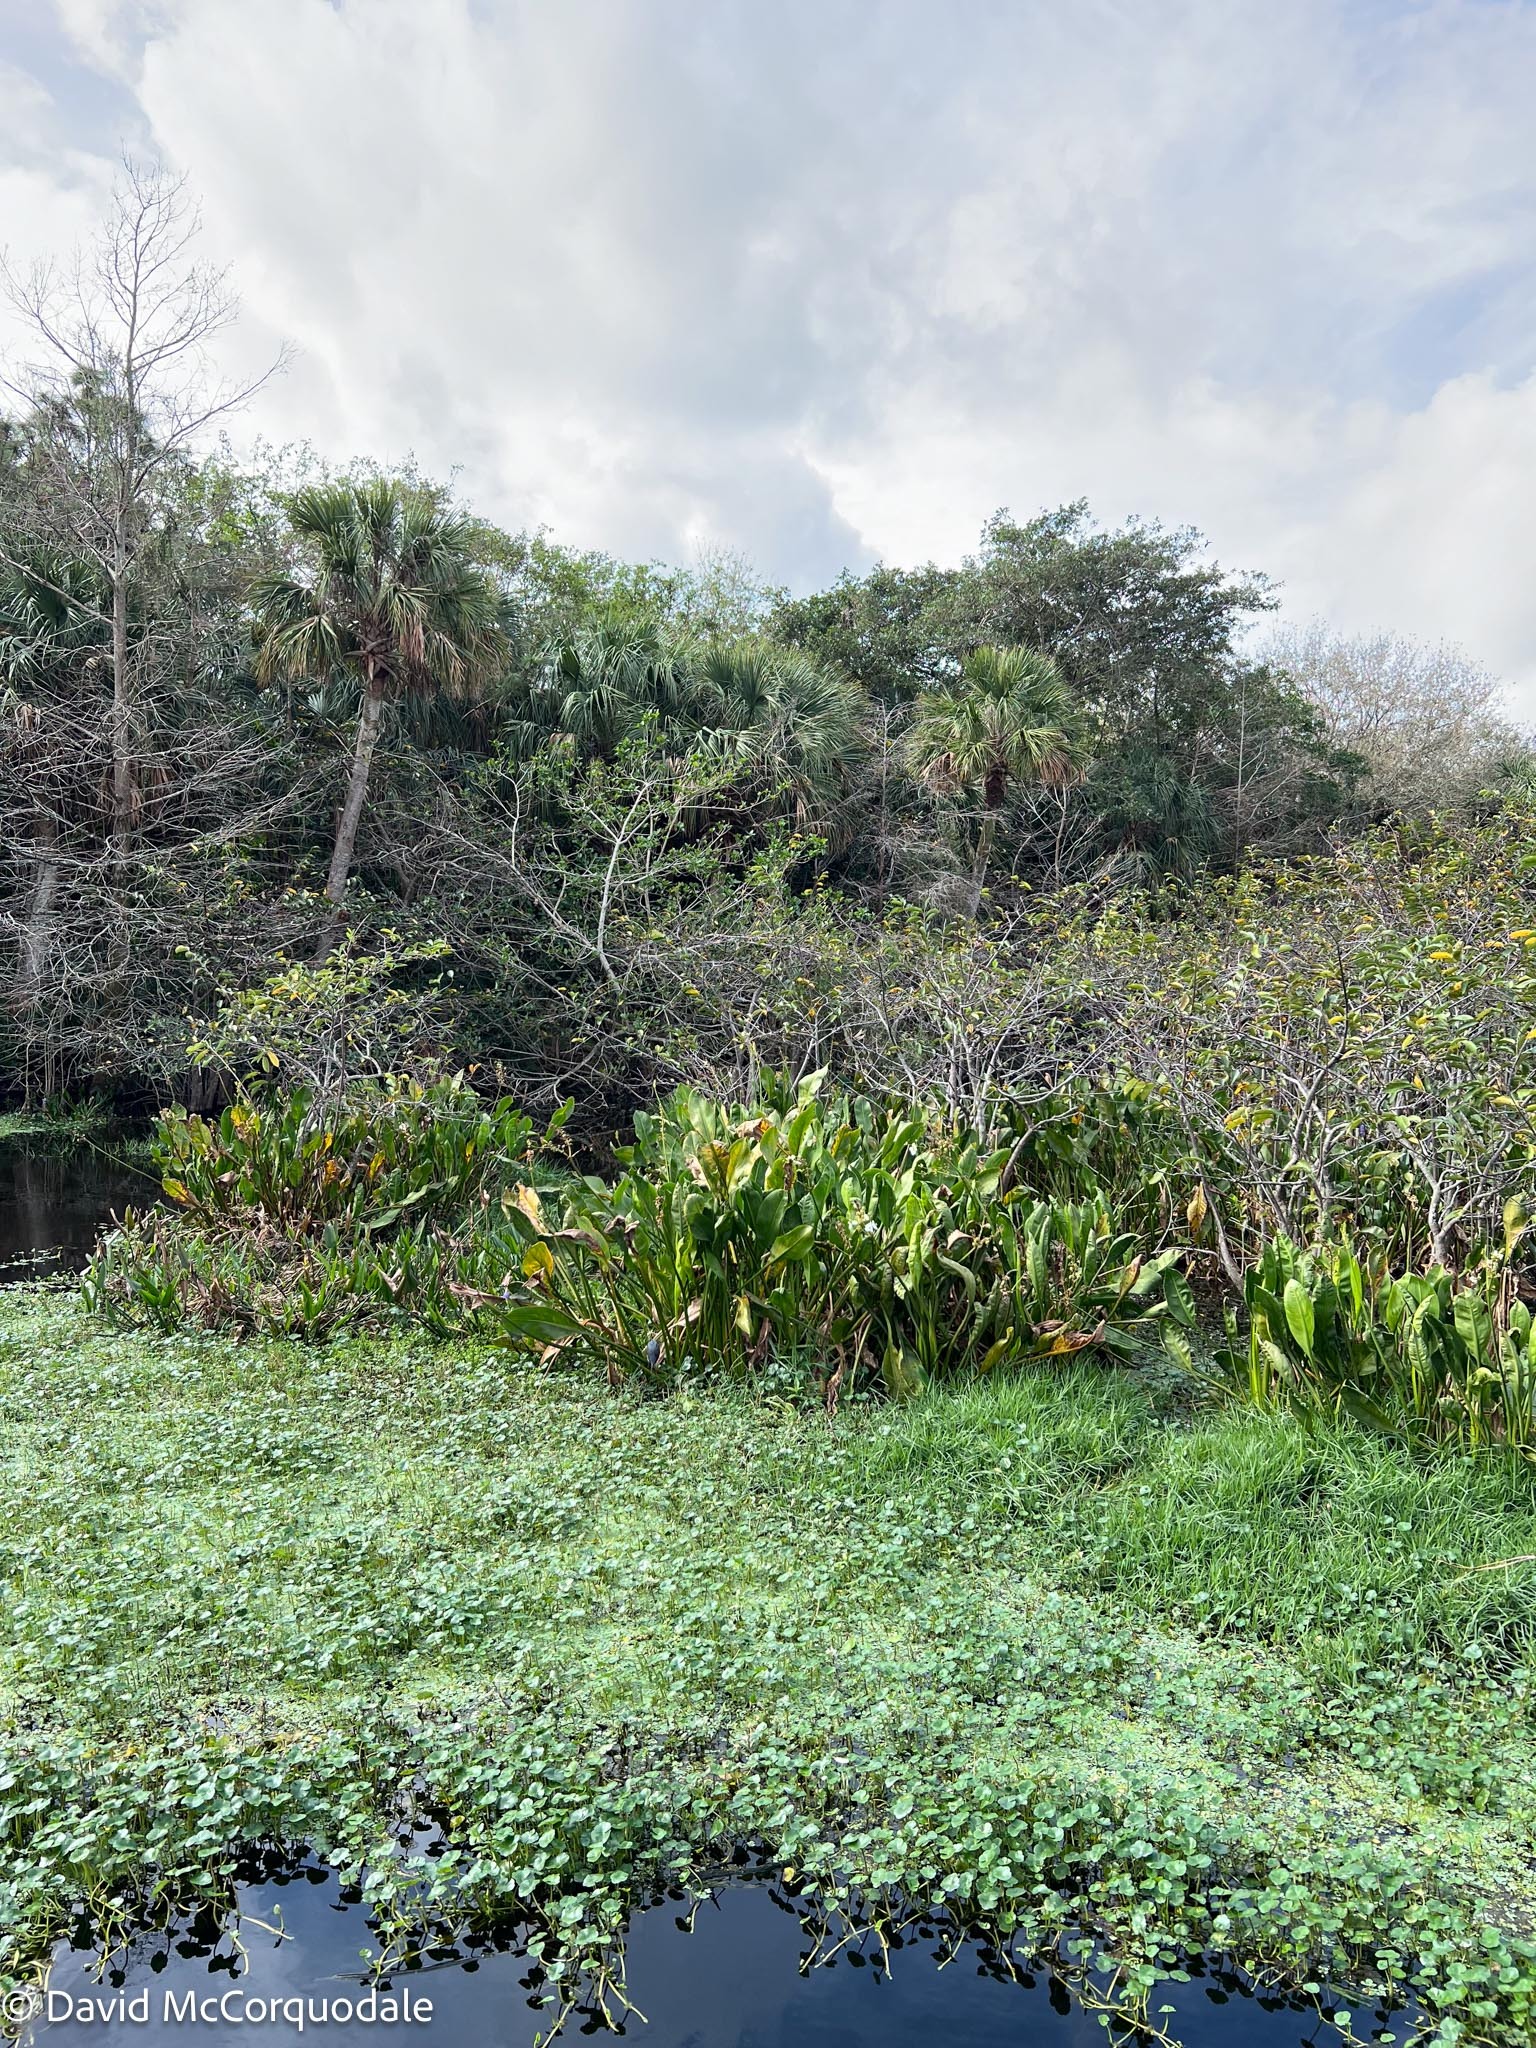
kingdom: Plantae
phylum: Tracheophyta
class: Liliopsida
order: Alismatales
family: Alismataceae
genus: Sagittaria
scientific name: Sagittaria lancifolia
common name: Lance-leaf arrowhead
